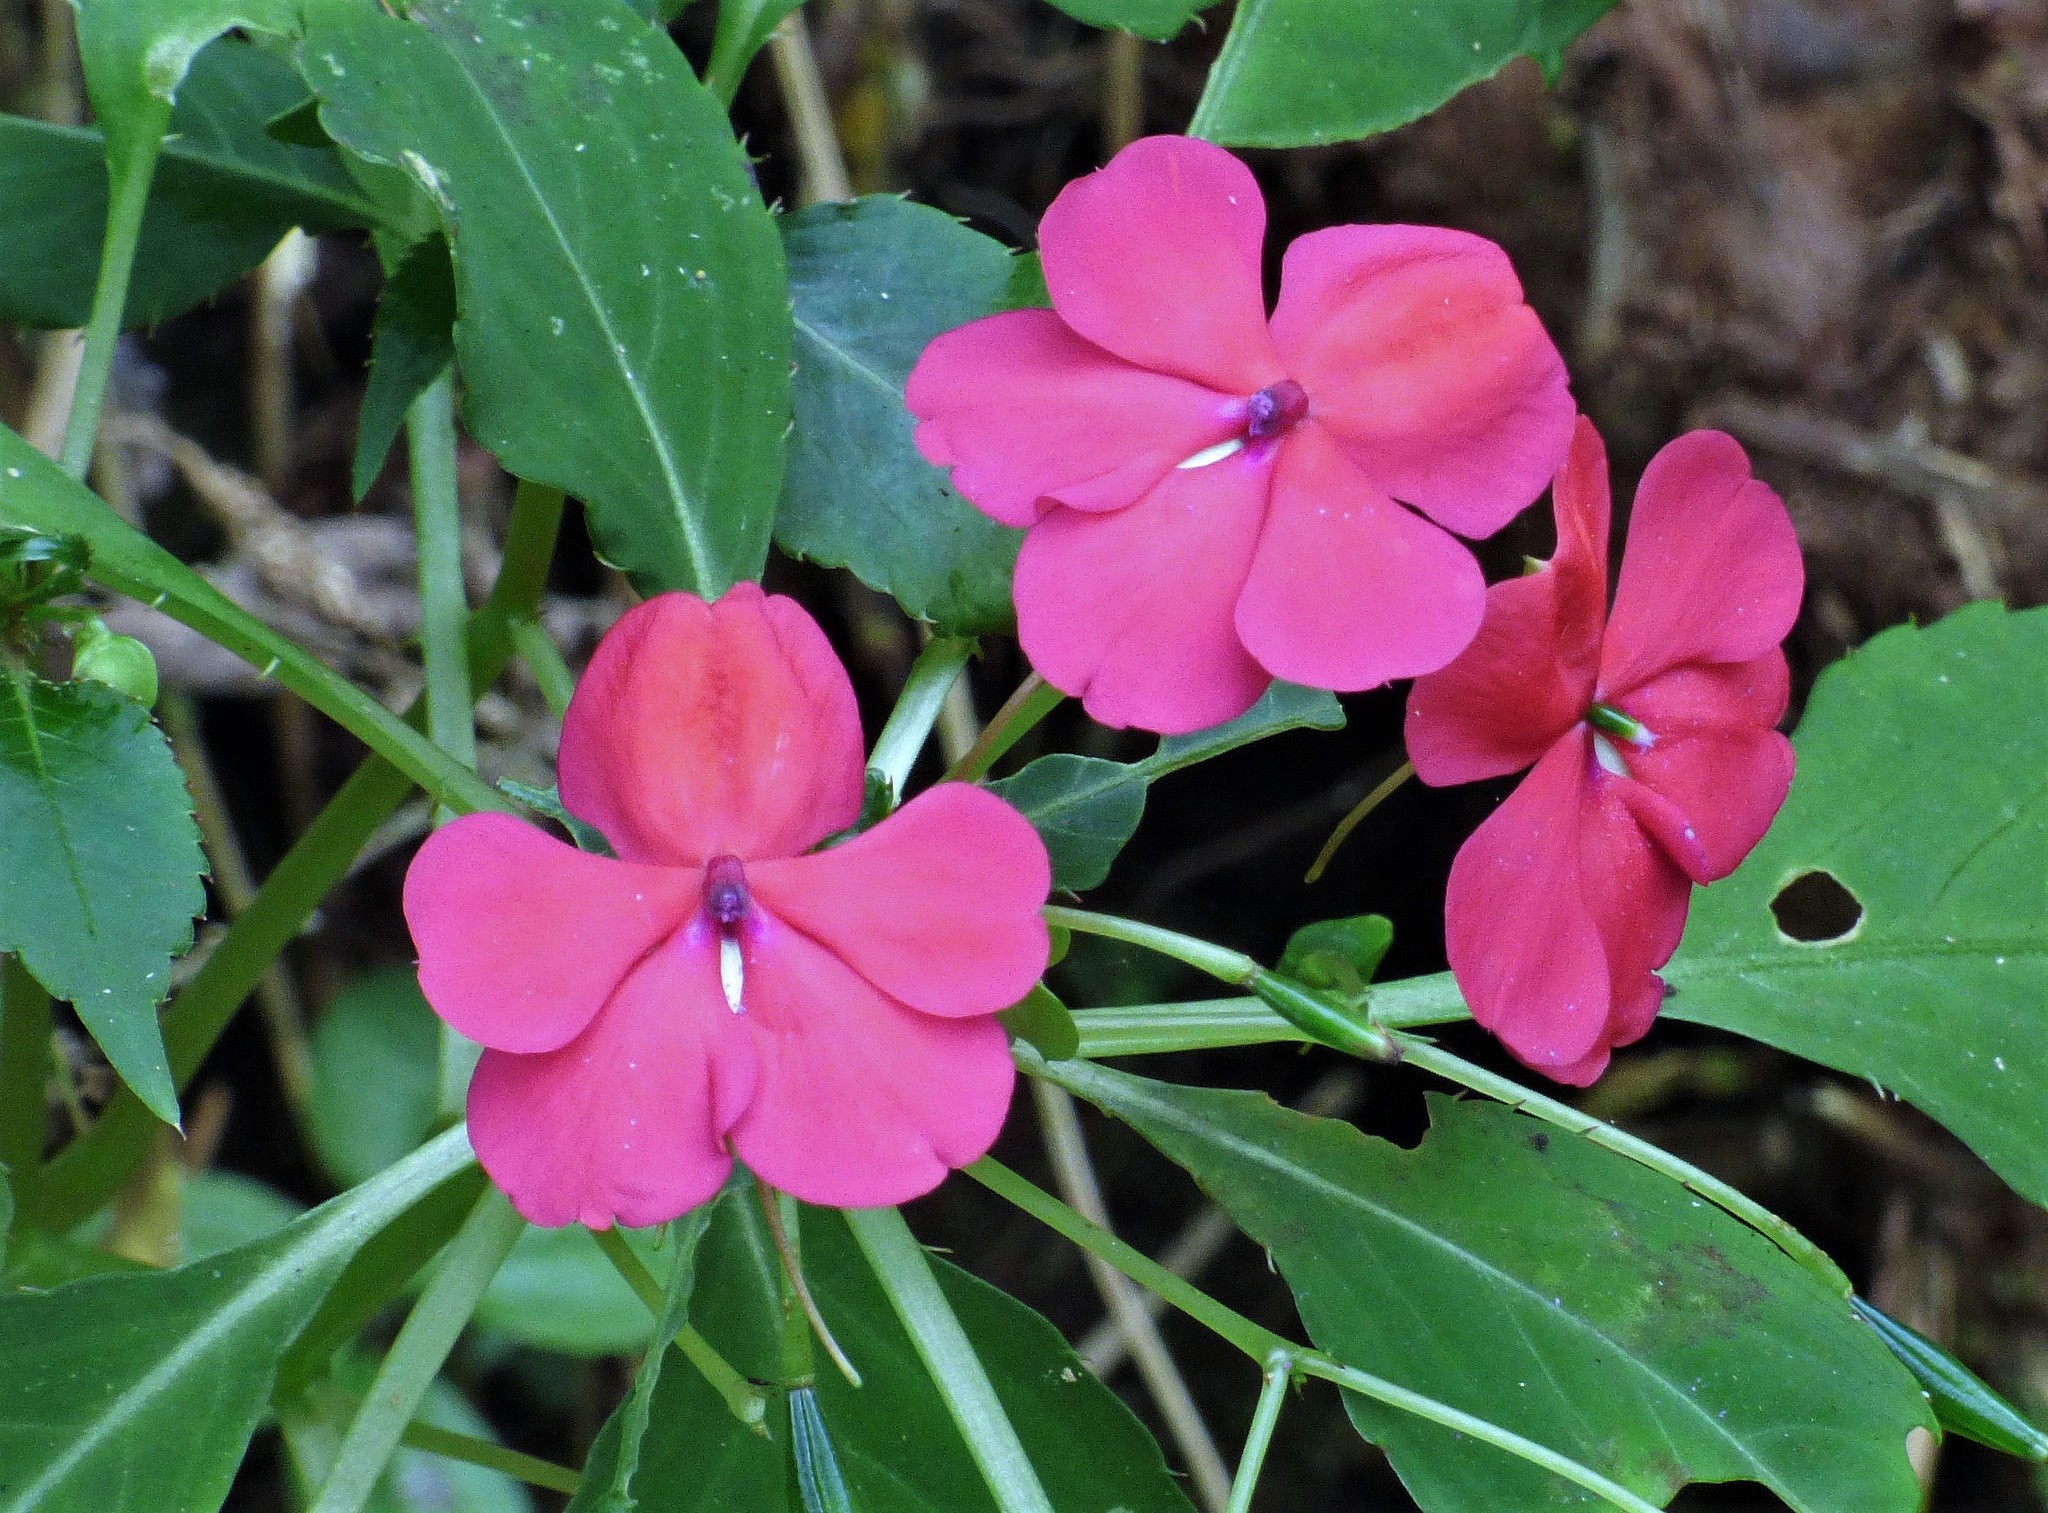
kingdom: Plantae
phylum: Tracheophyta
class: Magnoliopsida
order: Ericales
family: Balsaminaceae
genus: Impatiens
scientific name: Impatiens walleriana
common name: Buzzy lizzy
